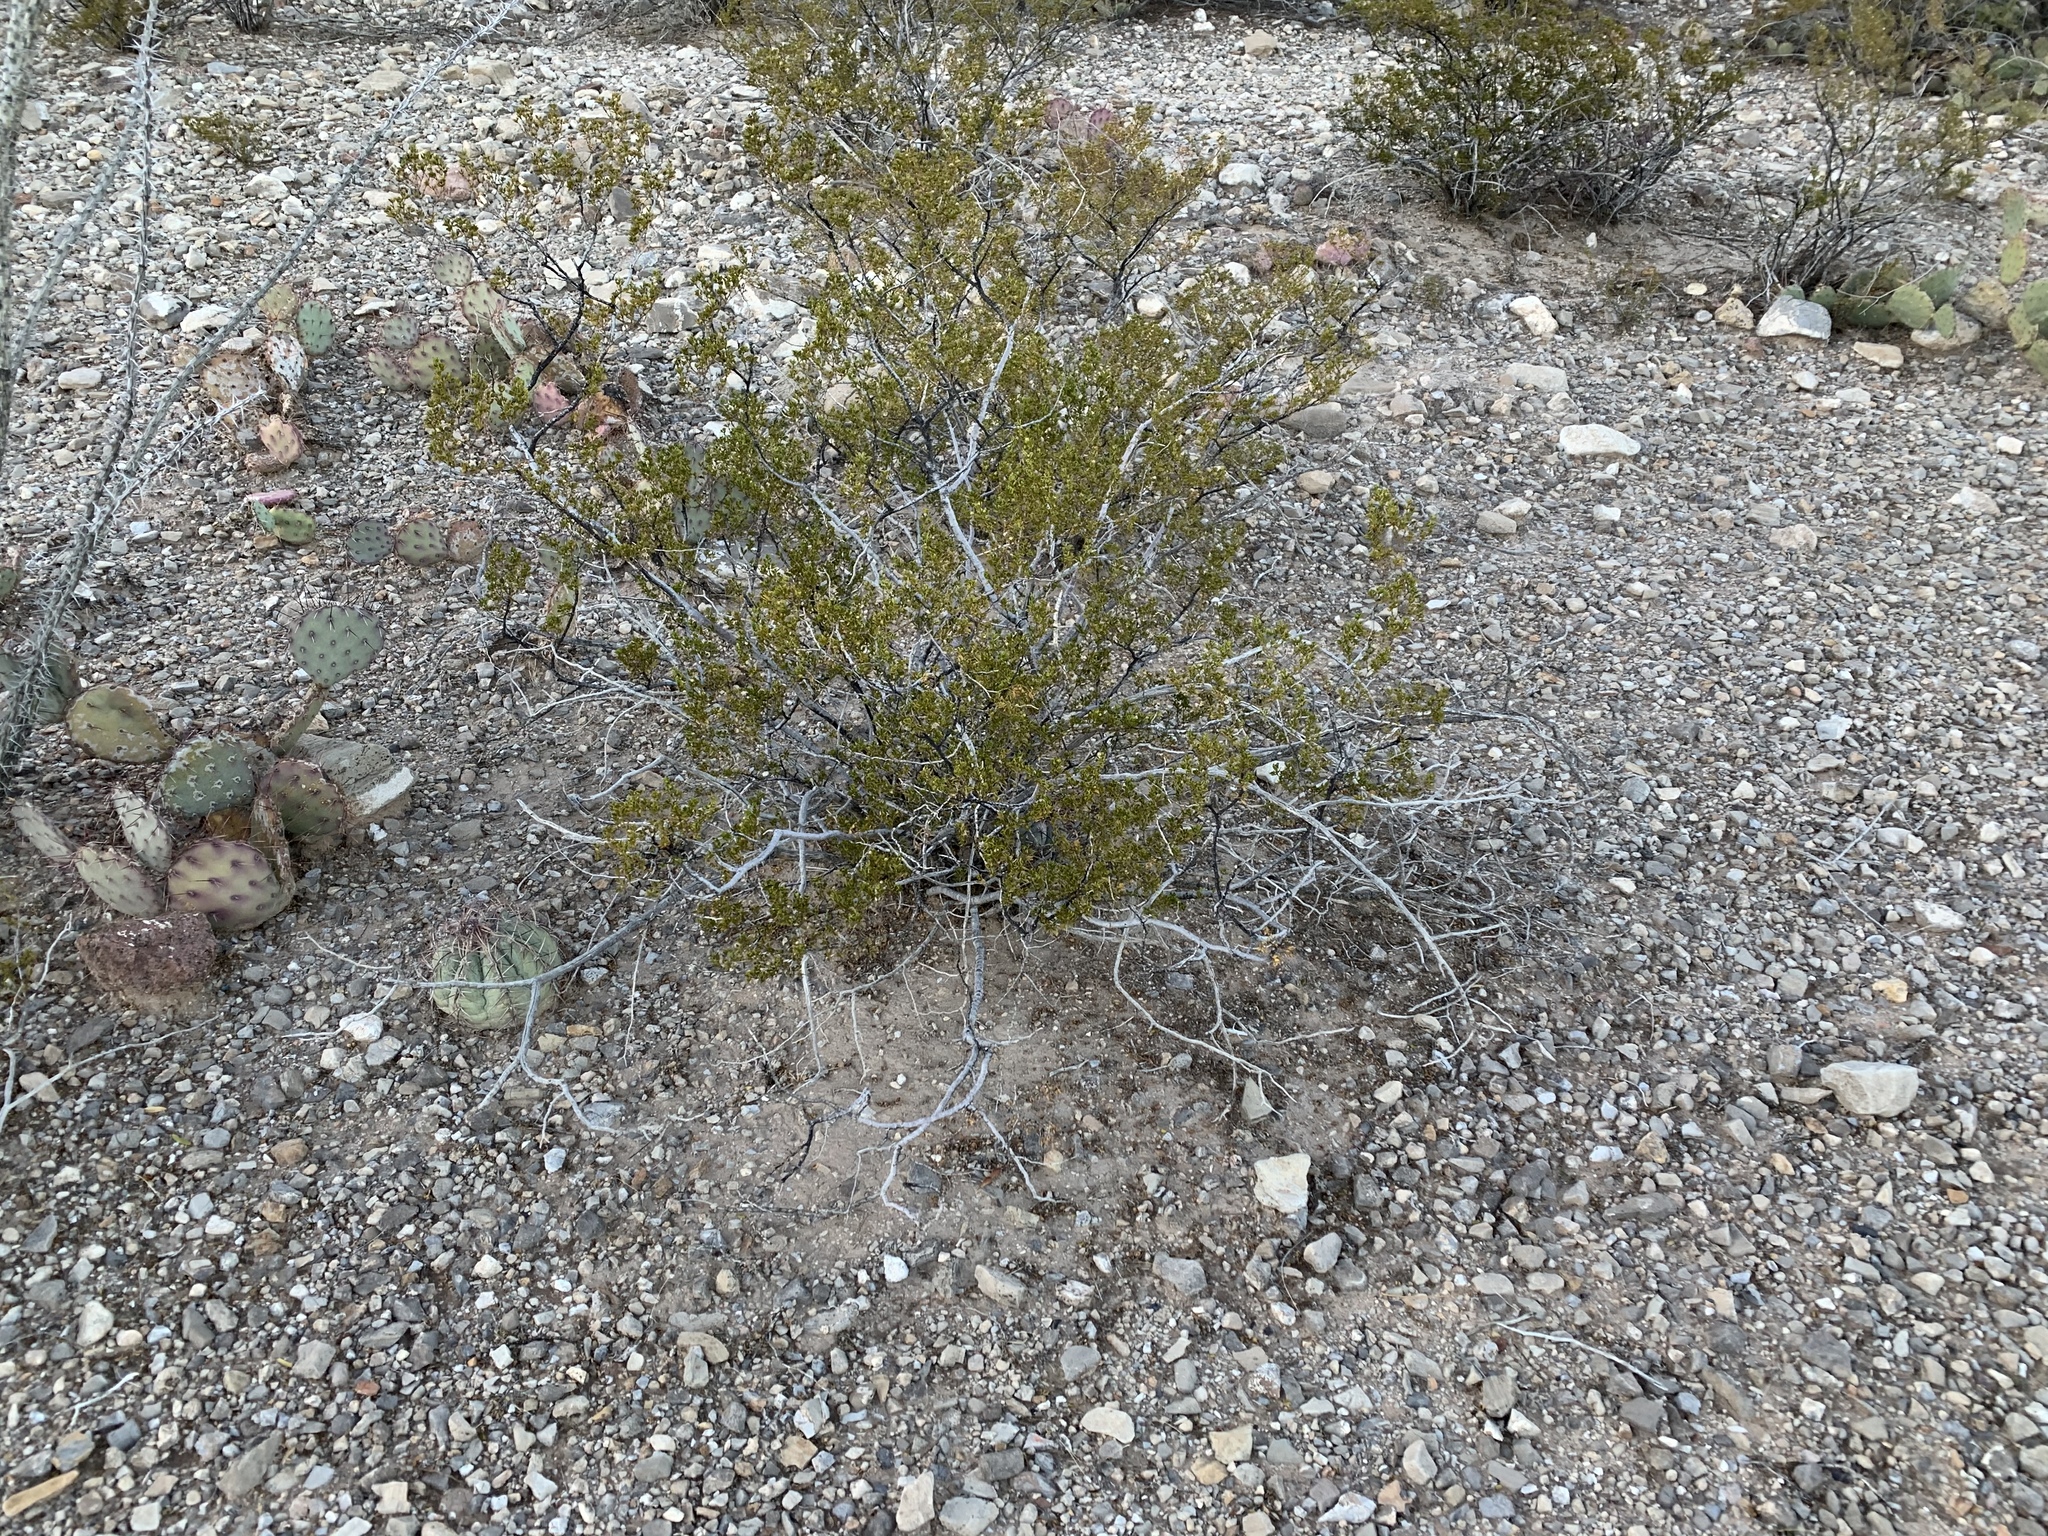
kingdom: Plantae
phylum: Tracheophyta
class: Magnoliopsida
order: Zygophyllales
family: Zygophyllaceae
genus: Larrea
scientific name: Larrea tridentata
